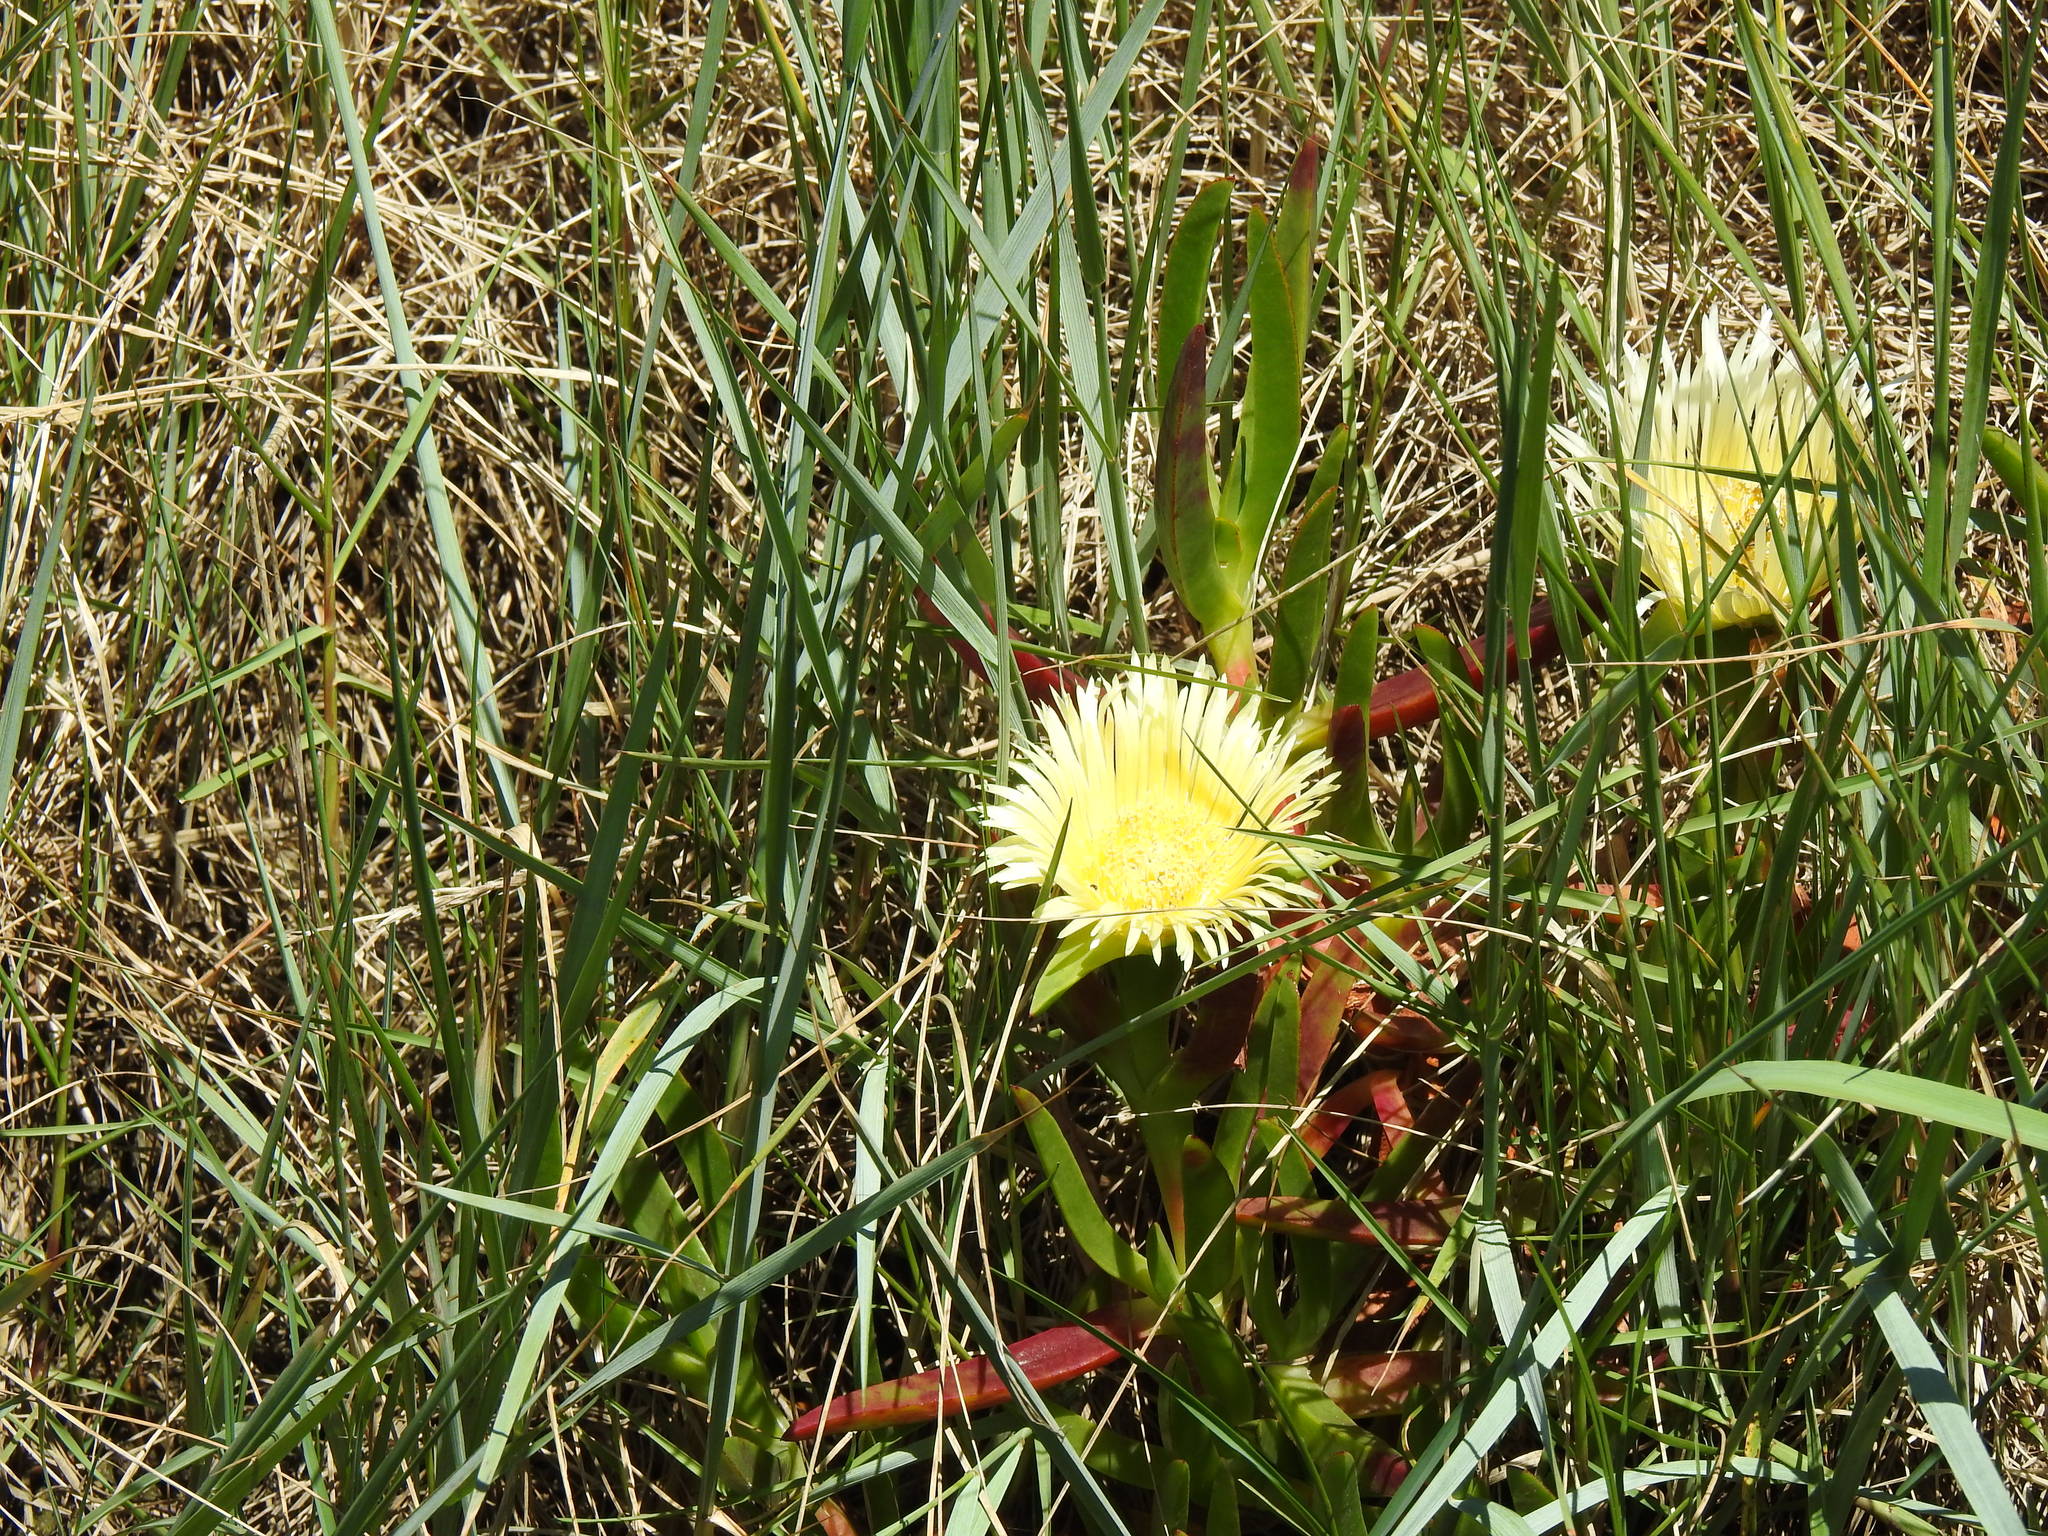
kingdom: Plantae
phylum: Tracheophyta
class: Magnoliopsida
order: Caryophyllales
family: Aizoaceae
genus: Carpobrotus
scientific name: Carpobrotus edulis
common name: Hottentot-fig
